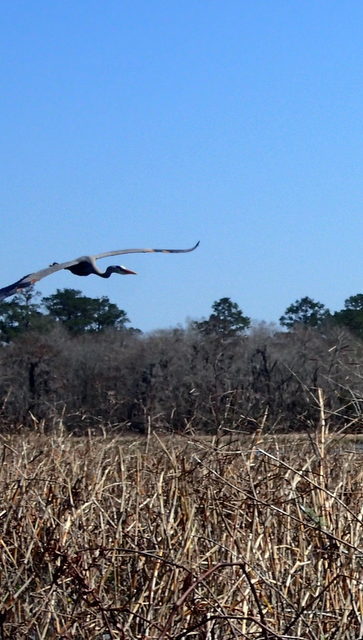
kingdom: Animalia
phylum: Chordata
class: Aves
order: Pelecaniformes
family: Ardeidae
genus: Ardea
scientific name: Ardea herodias
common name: Great blue heron
